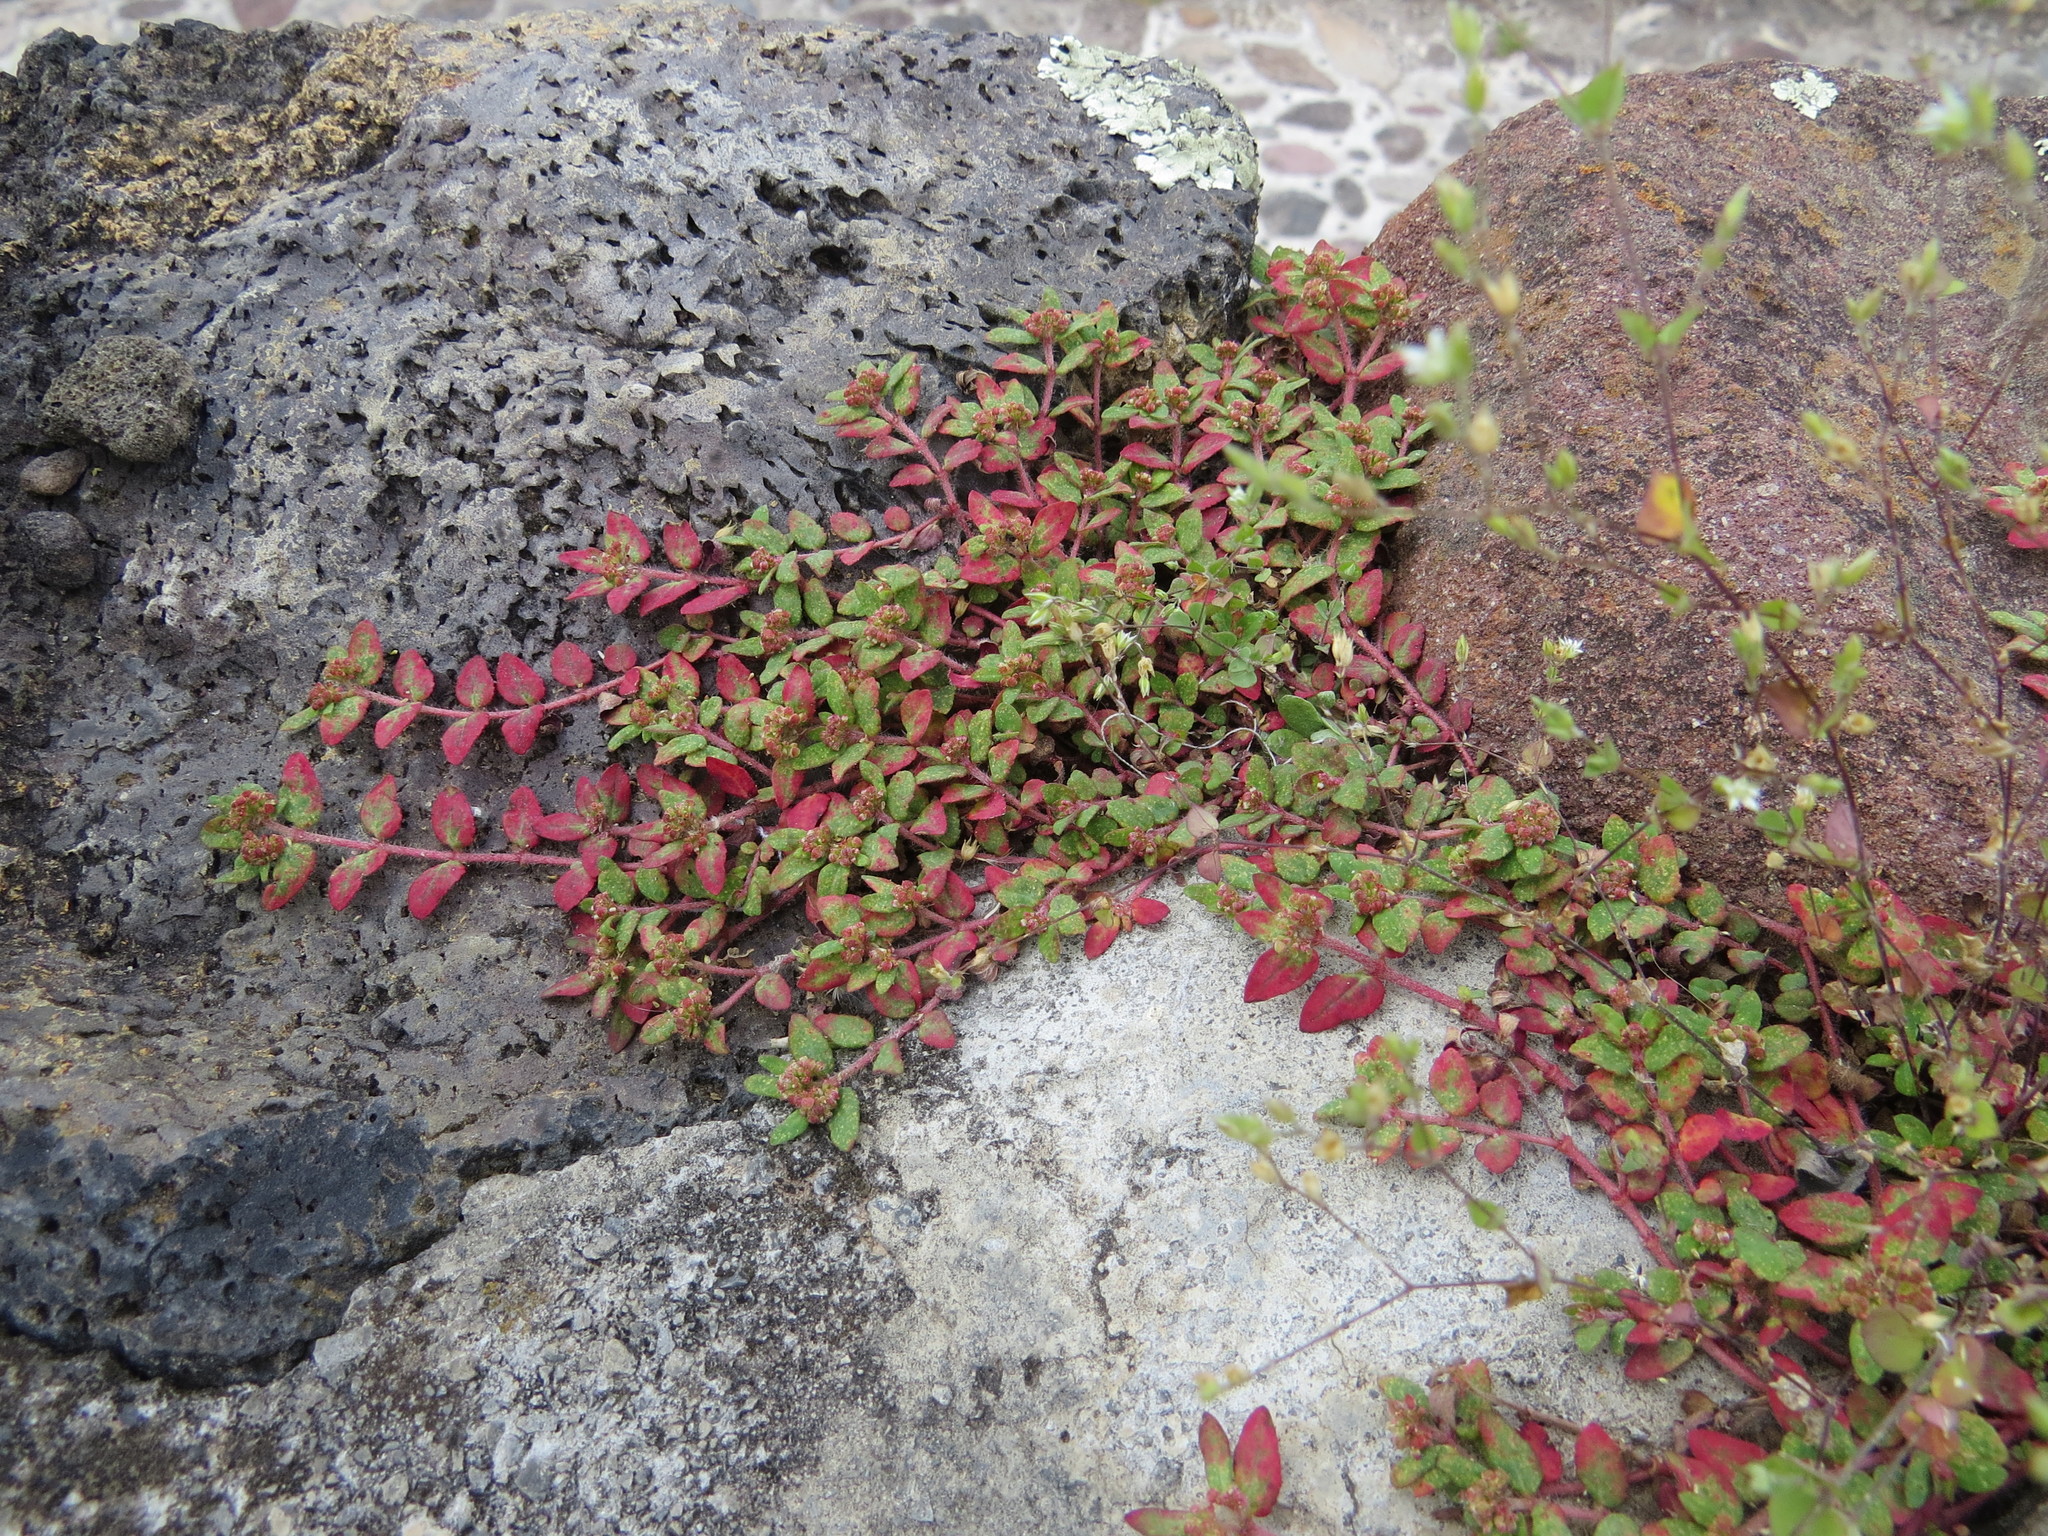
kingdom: Plantae
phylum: Tracheophyta
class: Magnoliopsida
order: Malpighiales
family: Euphorbiaceae
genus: Euphorbia
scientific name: Euphorbia ophthalmica
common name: Florida hammock sandmat
